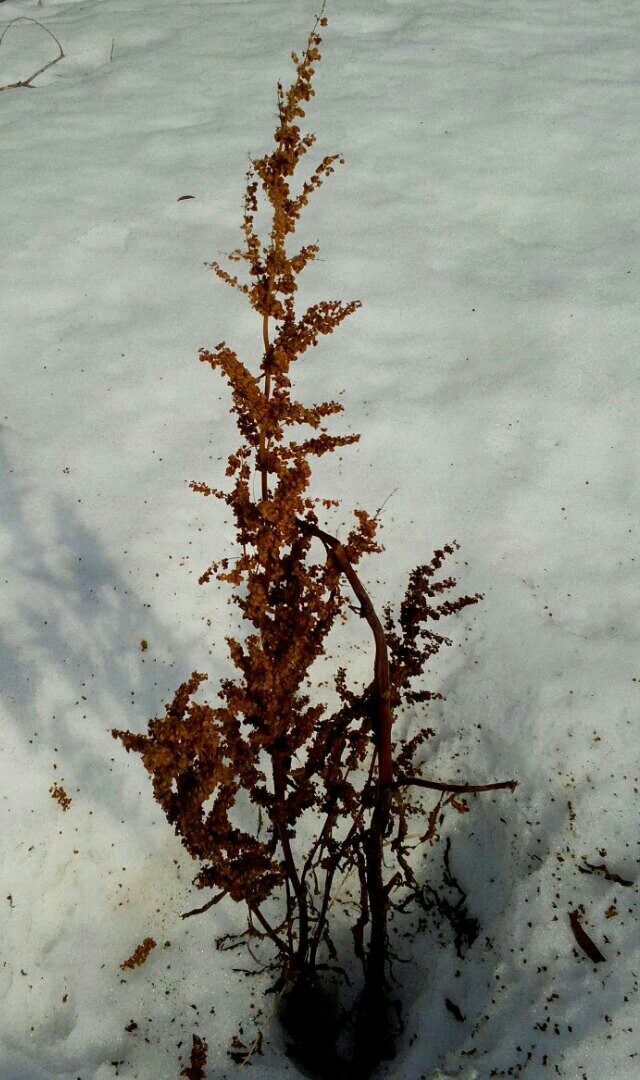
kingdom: Plantae
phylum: Tracheophyta
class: Magnoliopsida
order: Caryophyllales
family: Polygonaceae
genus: Rumex
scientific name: Rumex aquaticus
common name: Scottish dock
